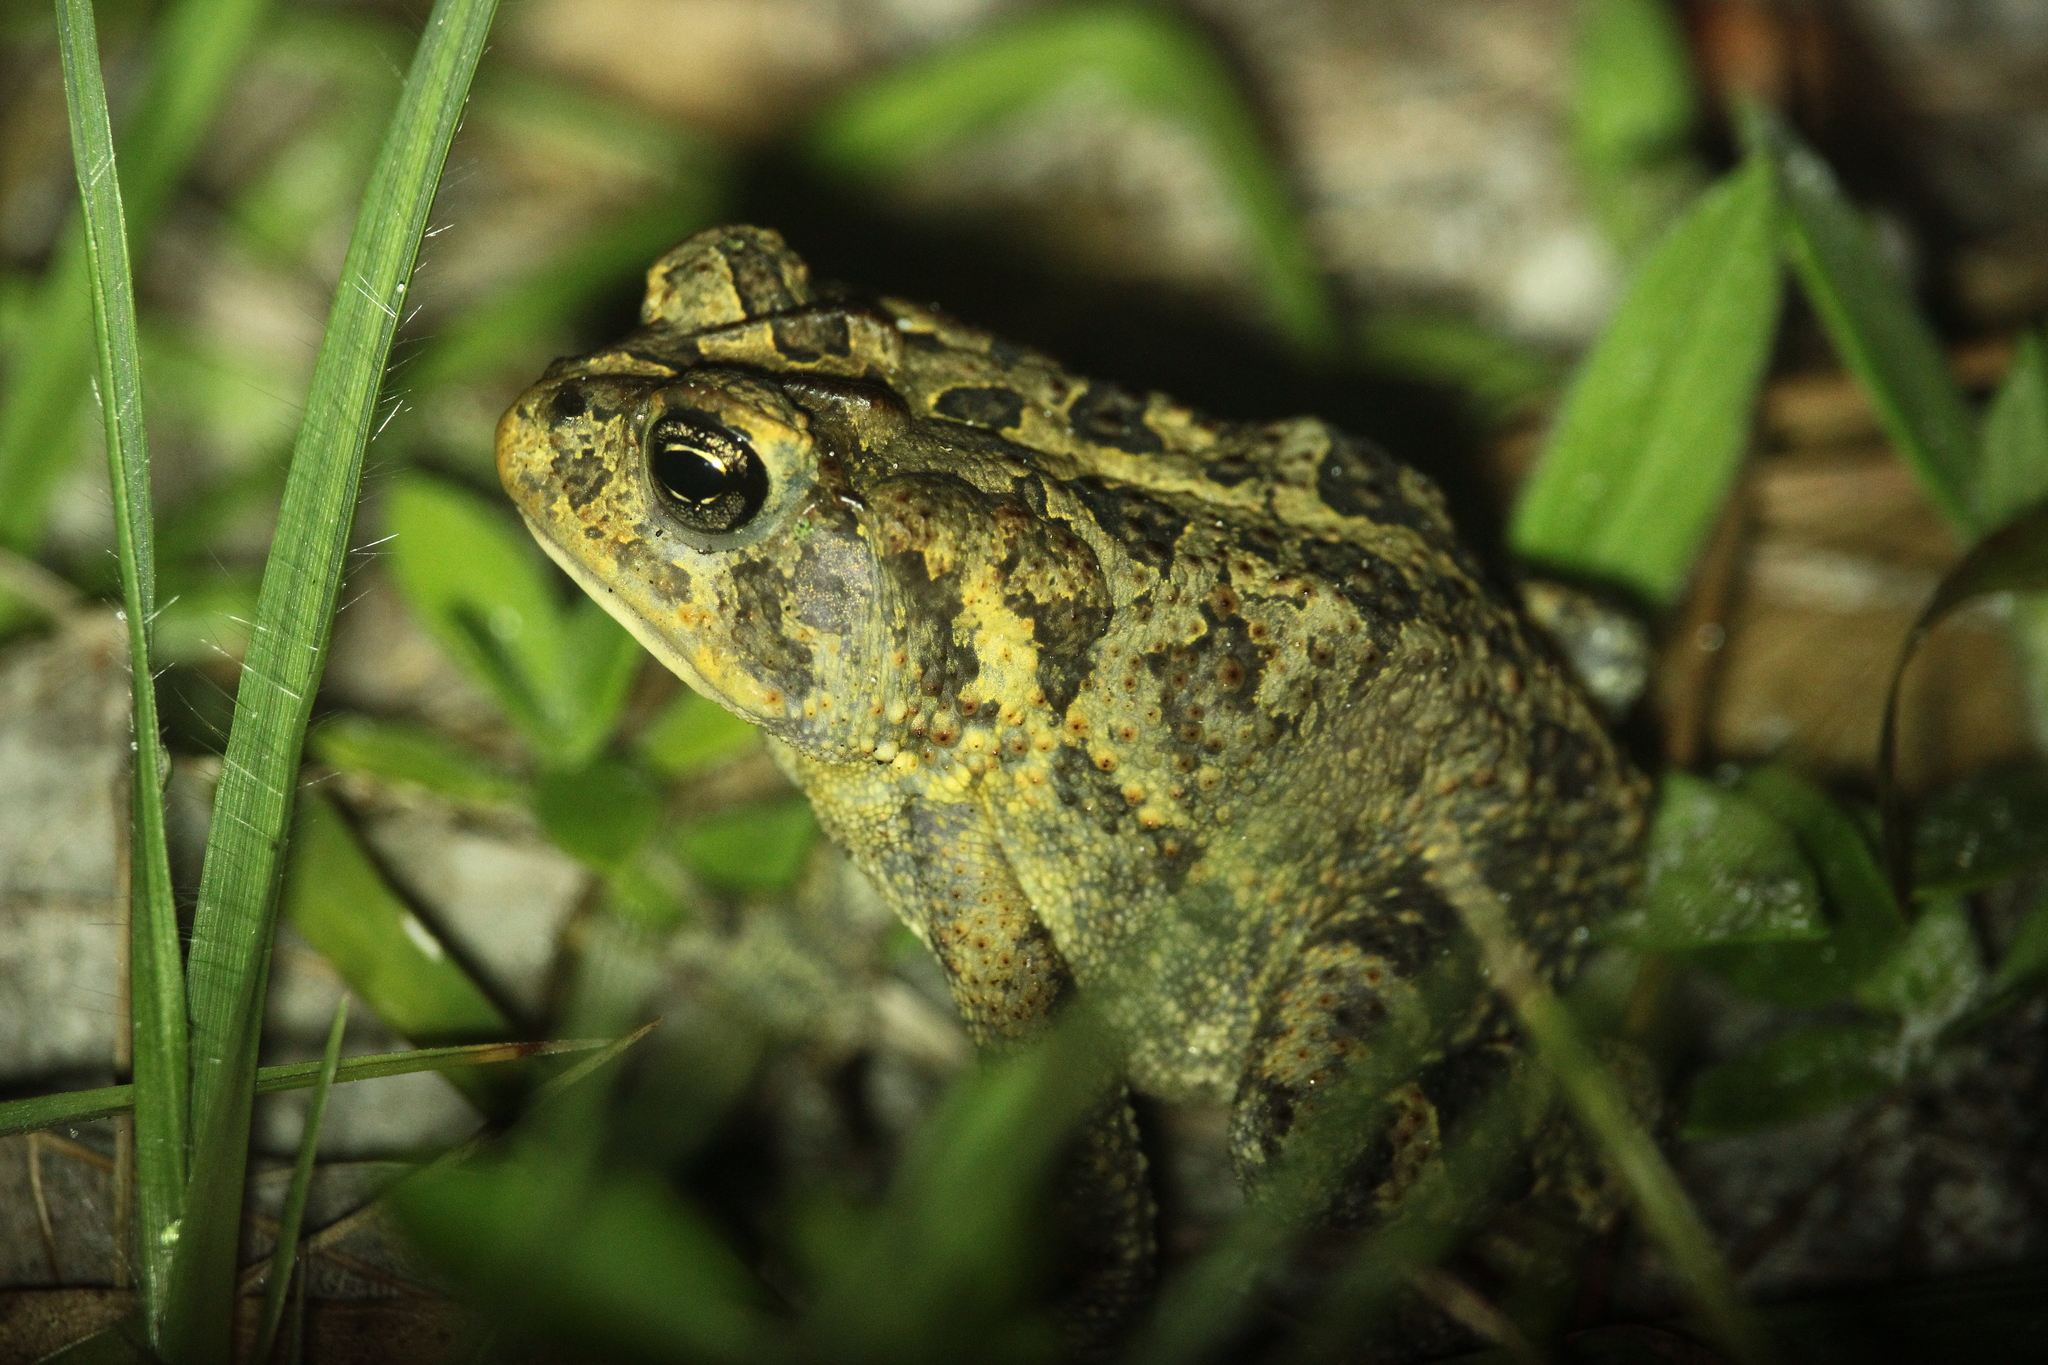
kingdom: Animalia
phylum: Chordata
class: Amphibia
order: Anura
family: Bufonidae
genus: Anaxyrus
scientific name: Anaxyrus terrestris
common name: Southern toad
